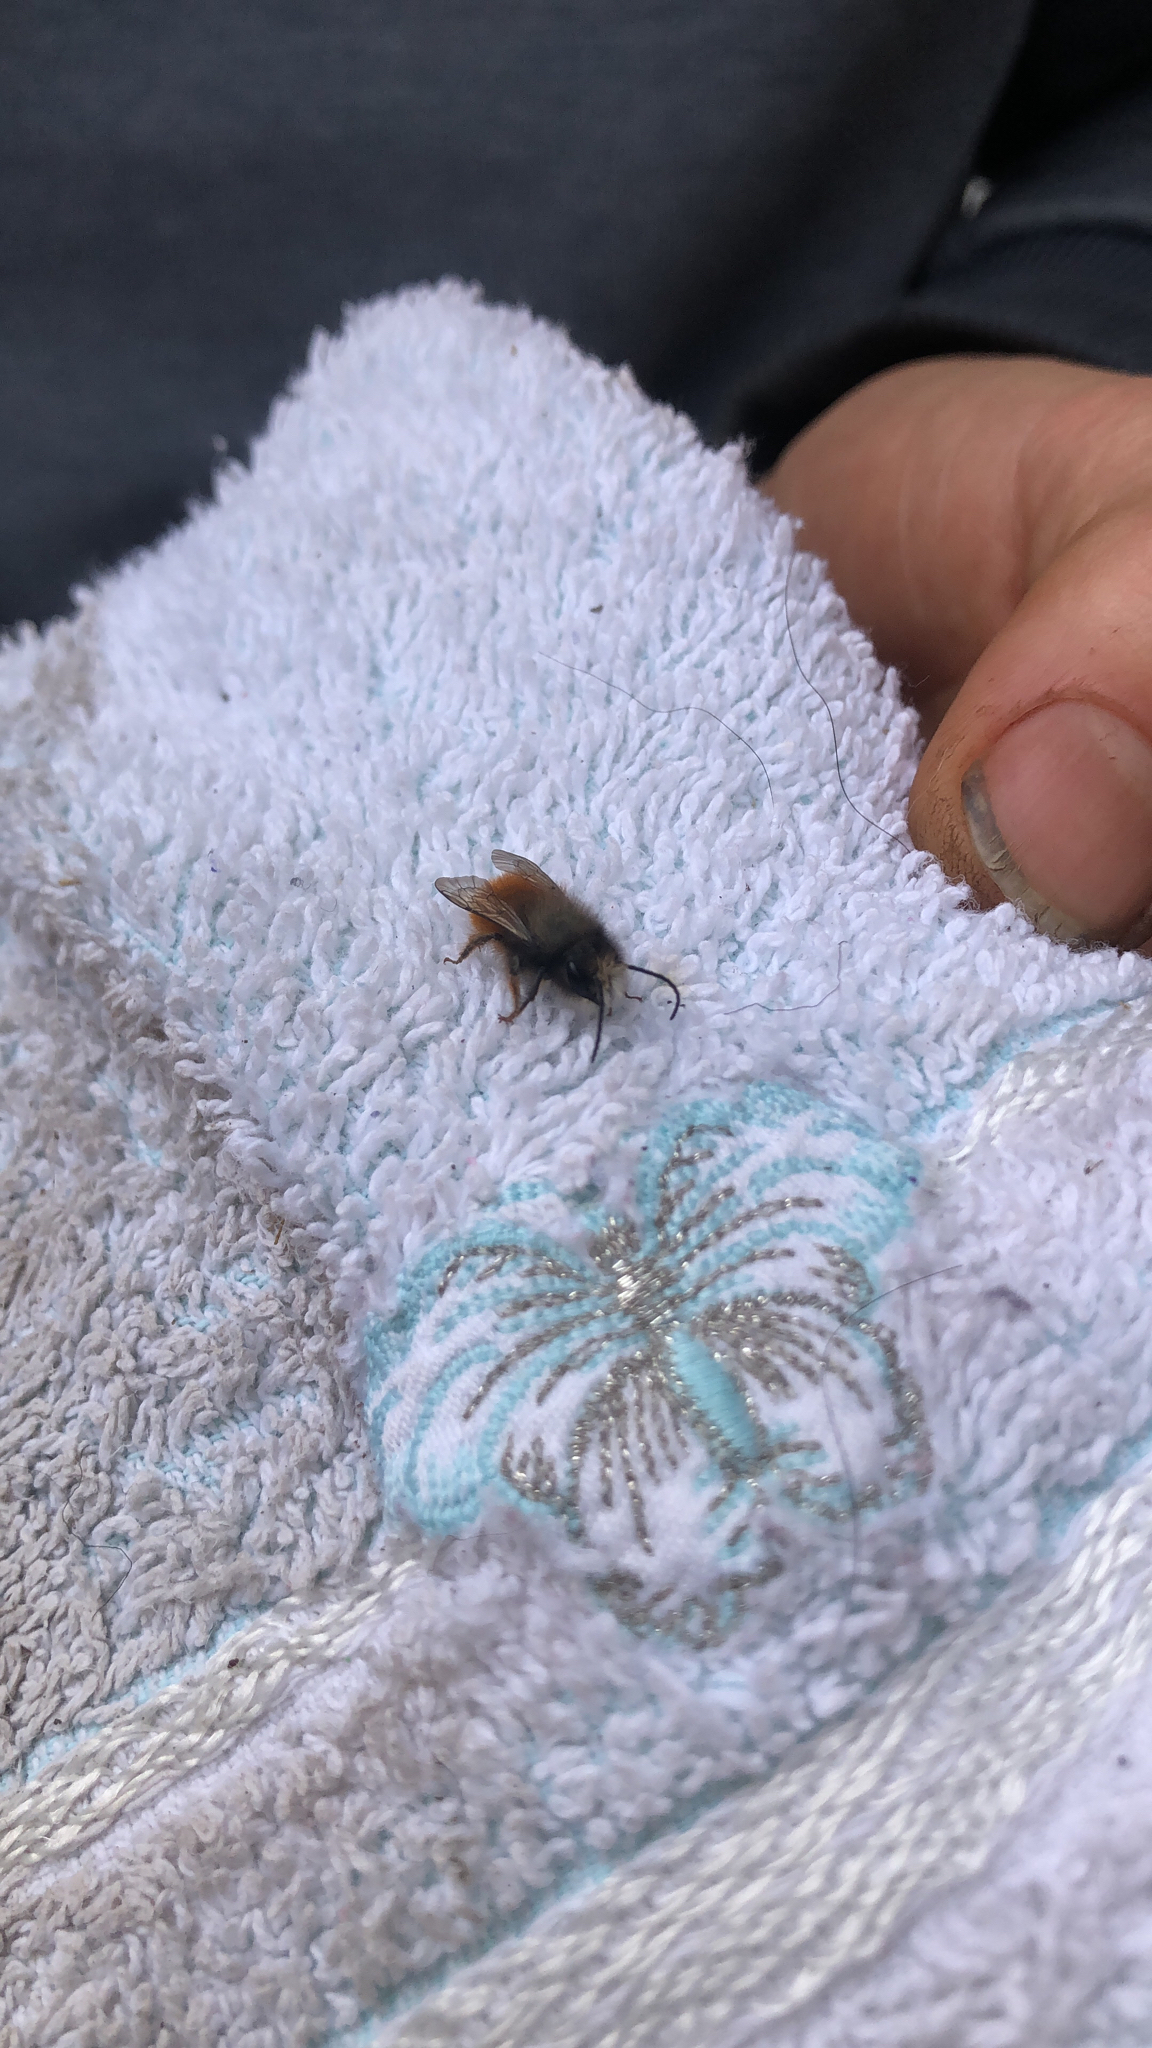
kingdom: Animalia
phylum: Arthropoda
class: Insecta
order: Hymenoptera
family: Megachilidae
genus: Osmia
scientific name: Osmia cornuta
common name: Mason bee
